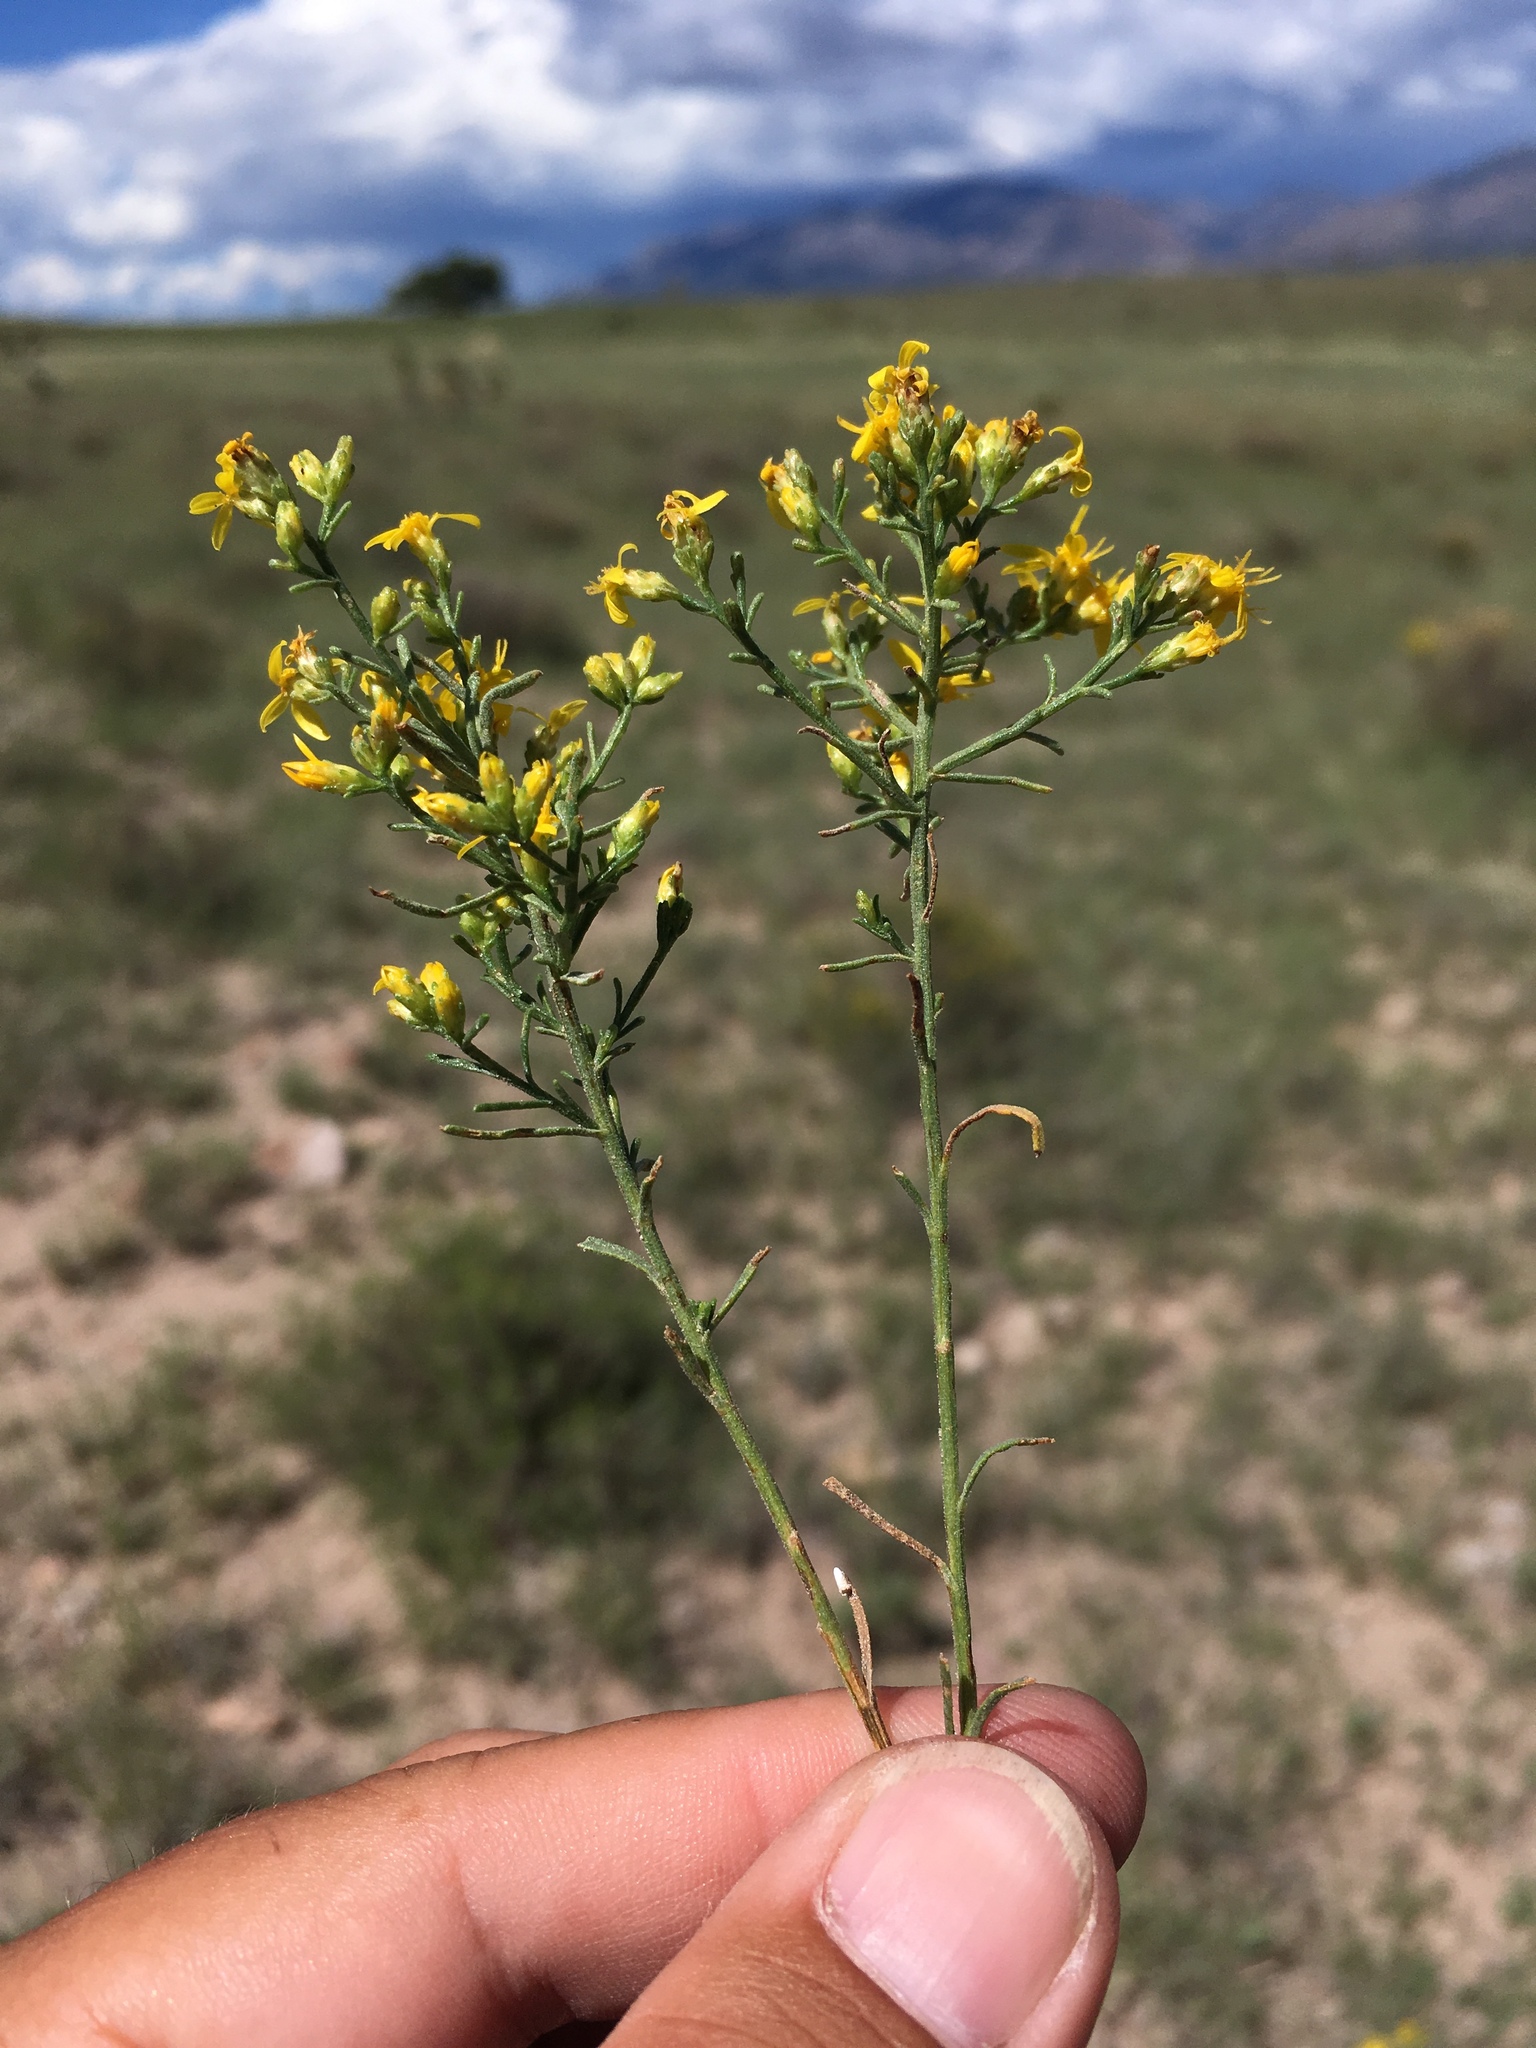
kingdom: Plantae
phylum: Tracheophyta
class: Magnoliopsida
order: Asterales
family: Asteraceae
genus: Gutierrezia
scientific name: Gutierrezia sarothrae
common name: Broom snakeweed
